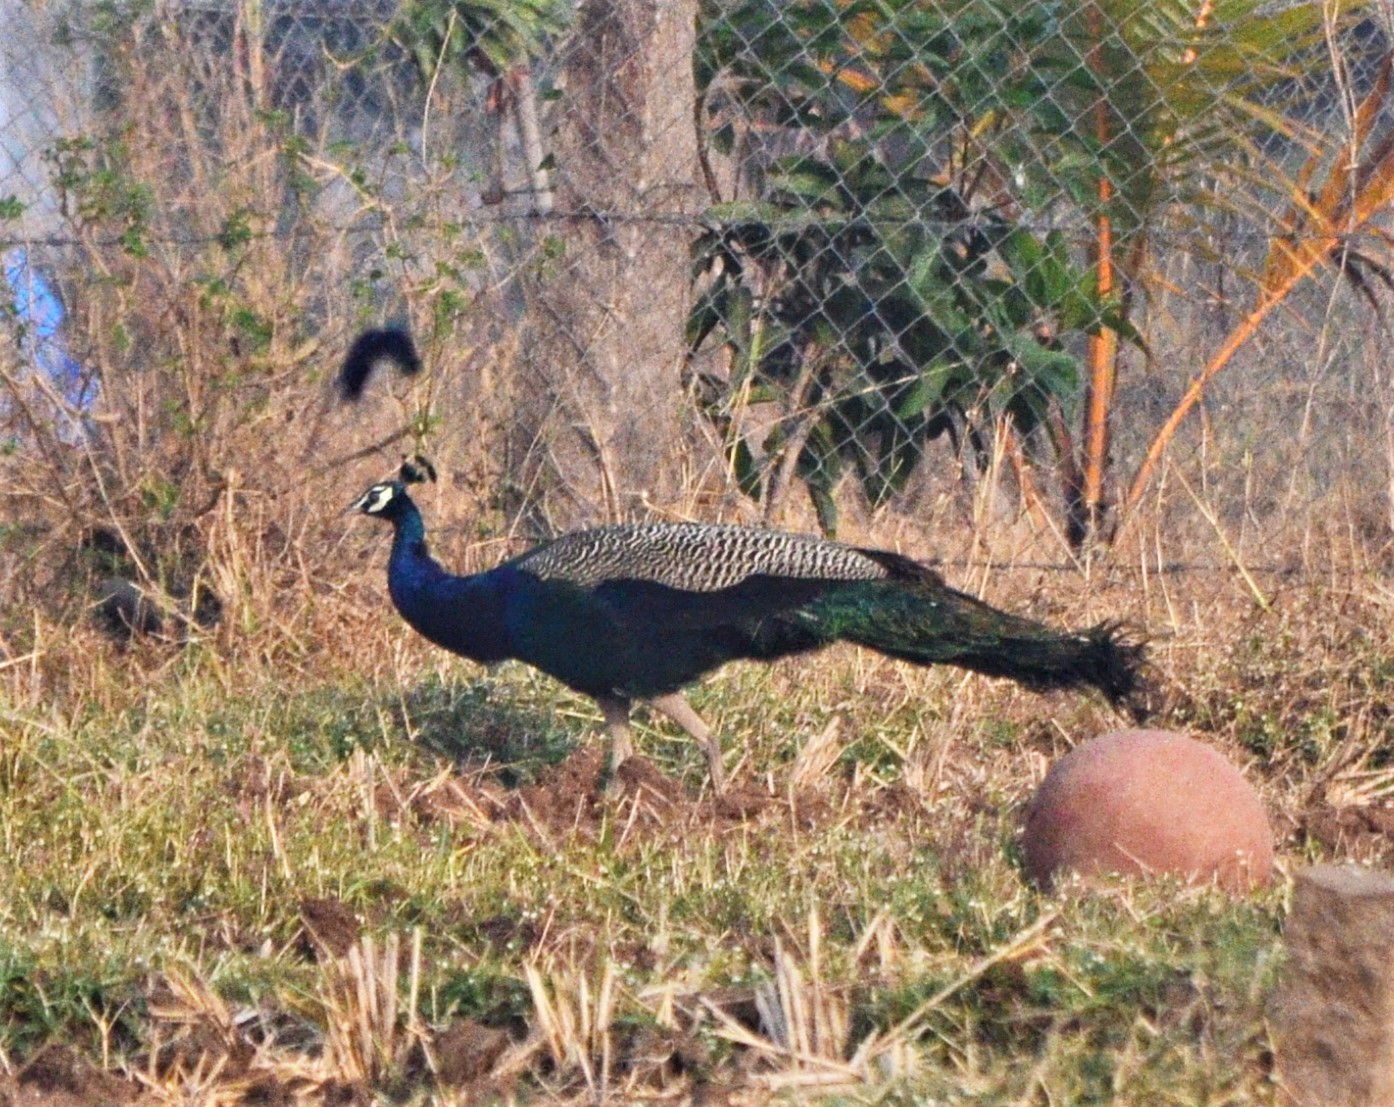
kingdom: Animalia
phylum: Chordata
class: Aves
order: Galliformes
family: Phasianidae
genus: Pavo
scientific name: Pavo cristatus
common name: Indian peafowl
